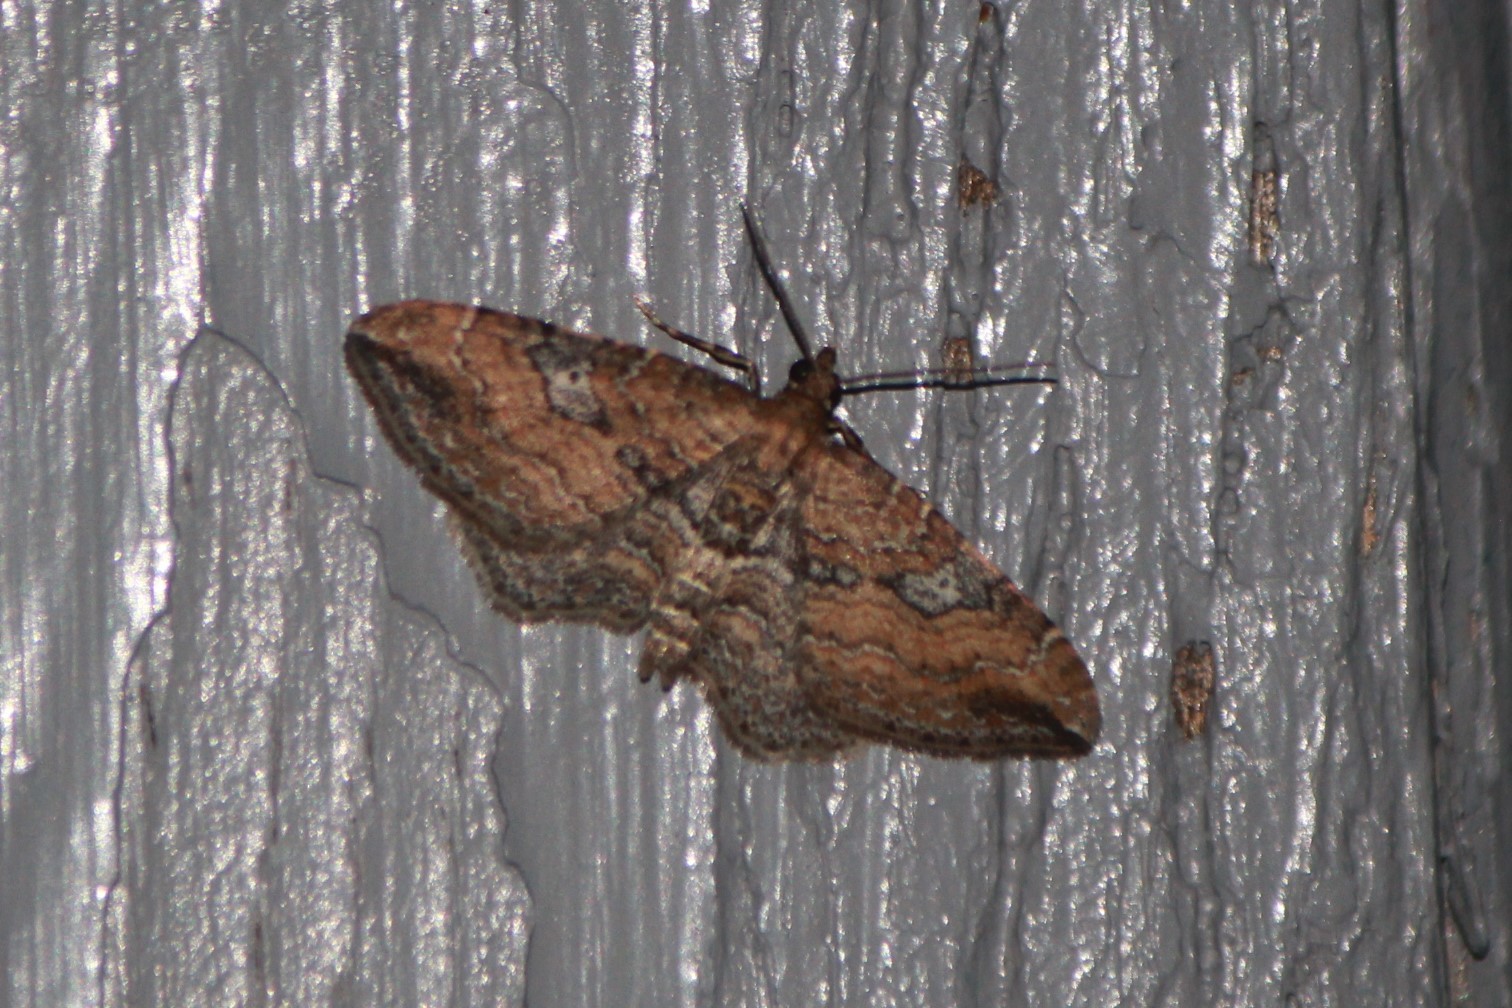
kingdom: Animalia
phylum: Arthropoda
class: Insecta
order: Lepidoptera
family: Geometridae
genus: Orthonama
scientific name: Orthonama obstipata
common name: The gem
